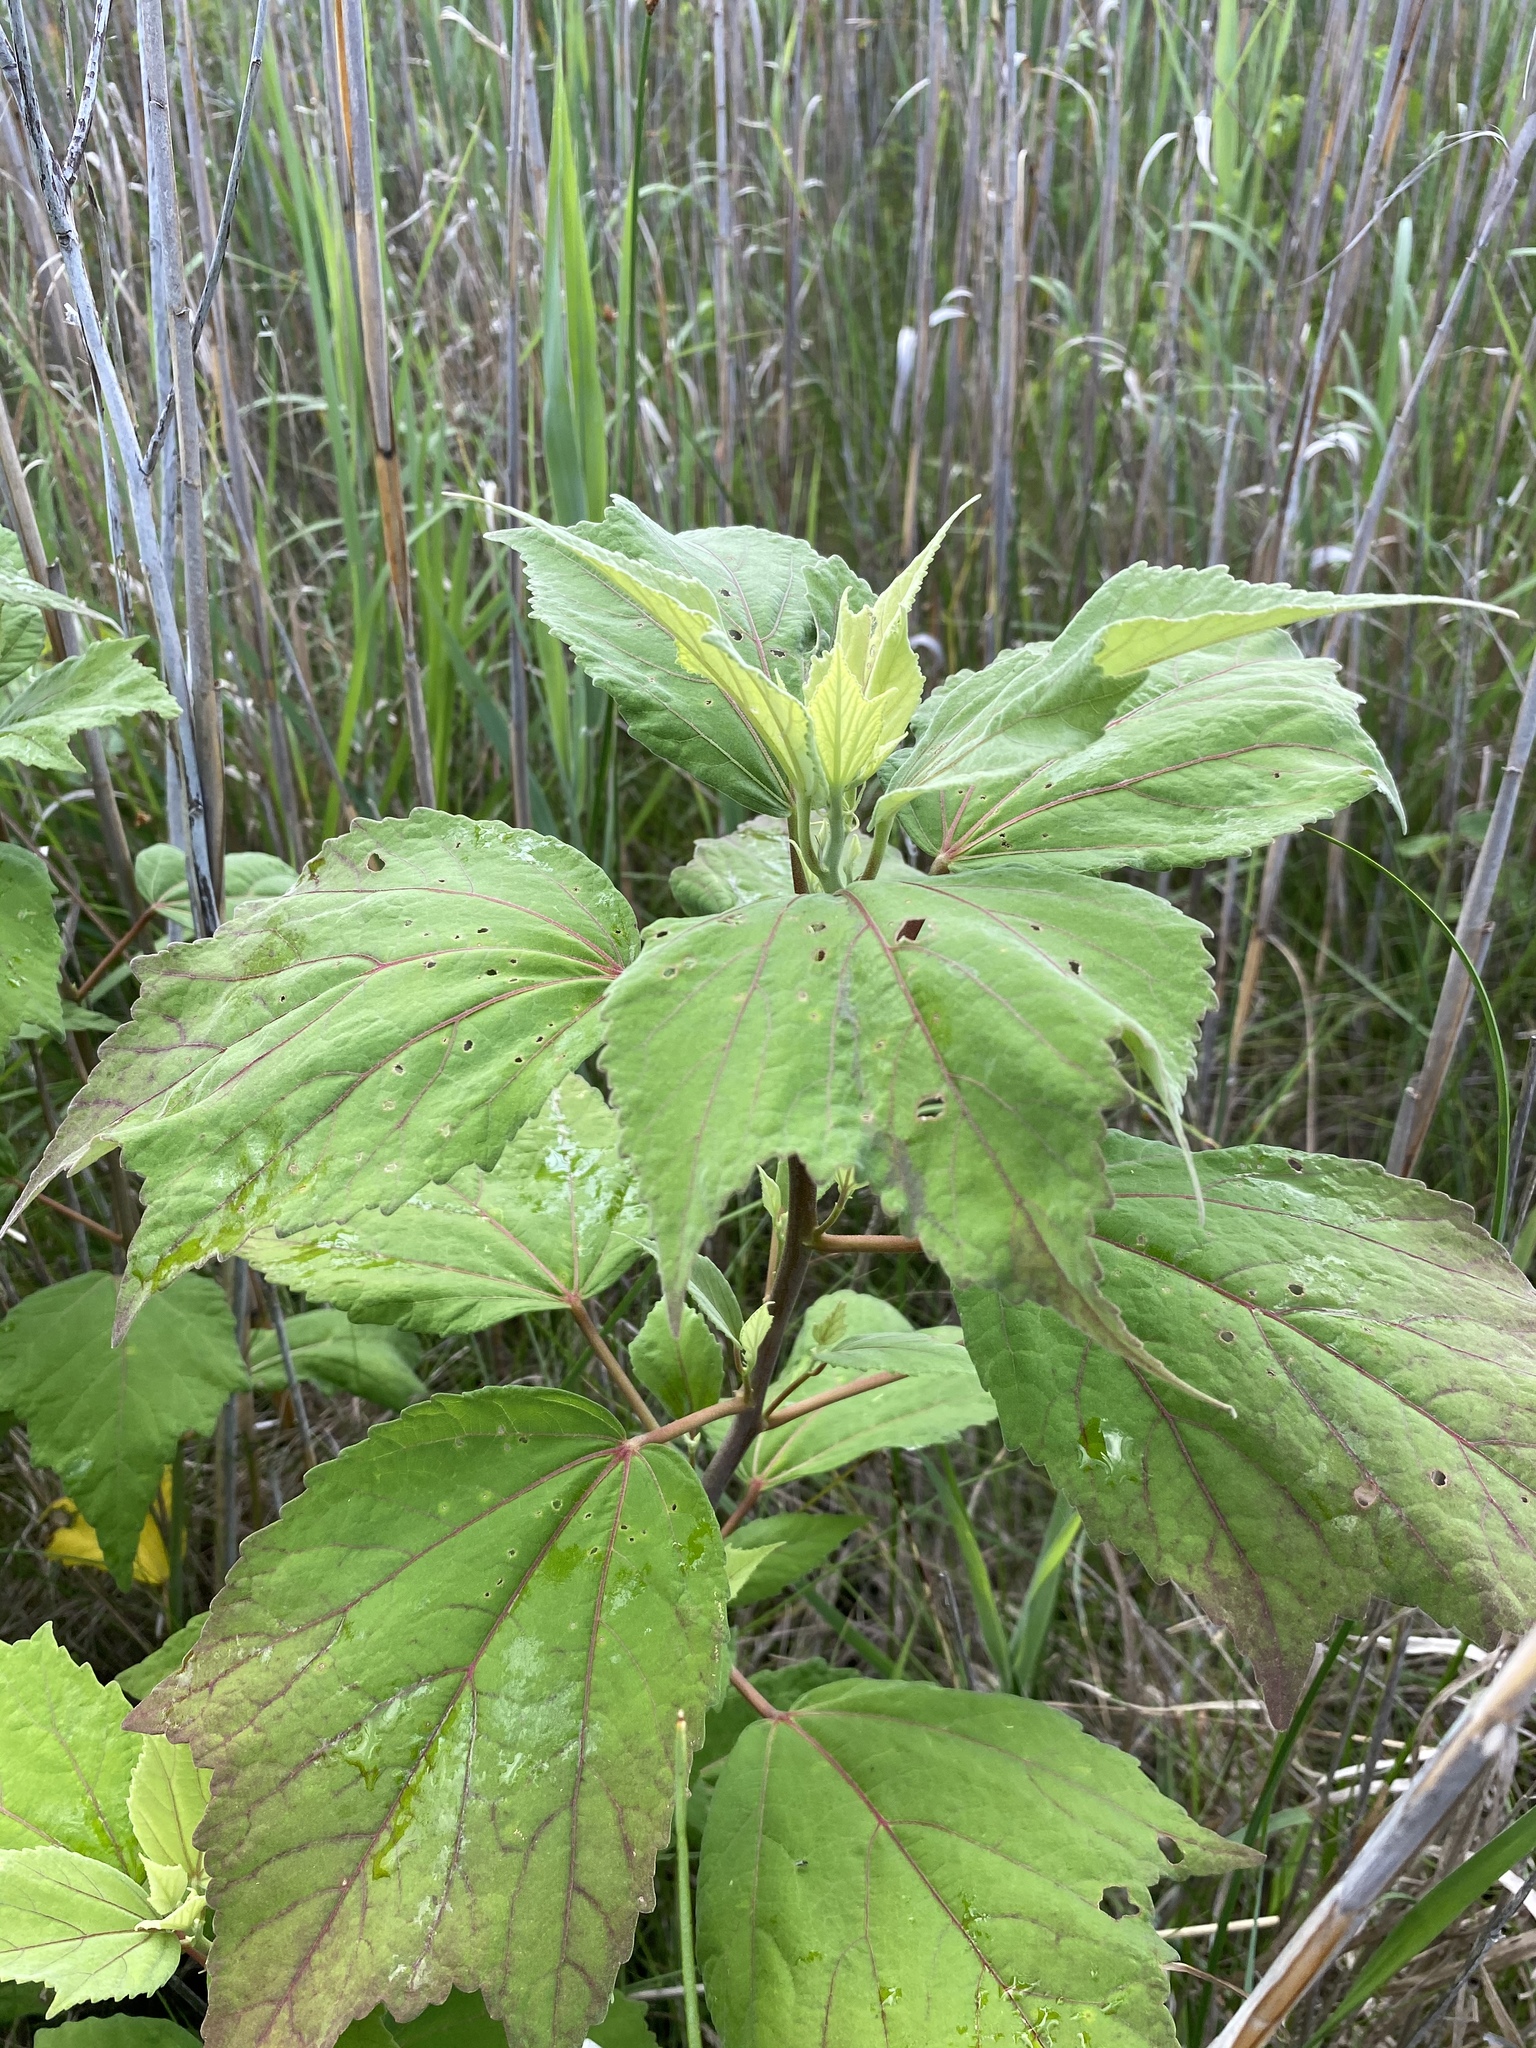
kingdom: Plantae
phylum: Tracheophyta
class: Magnoliopsida
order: Malvales
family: Malvaceae
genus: Hibiscus
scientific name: Hibiscus moscheutos
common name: Common rose-mallow
